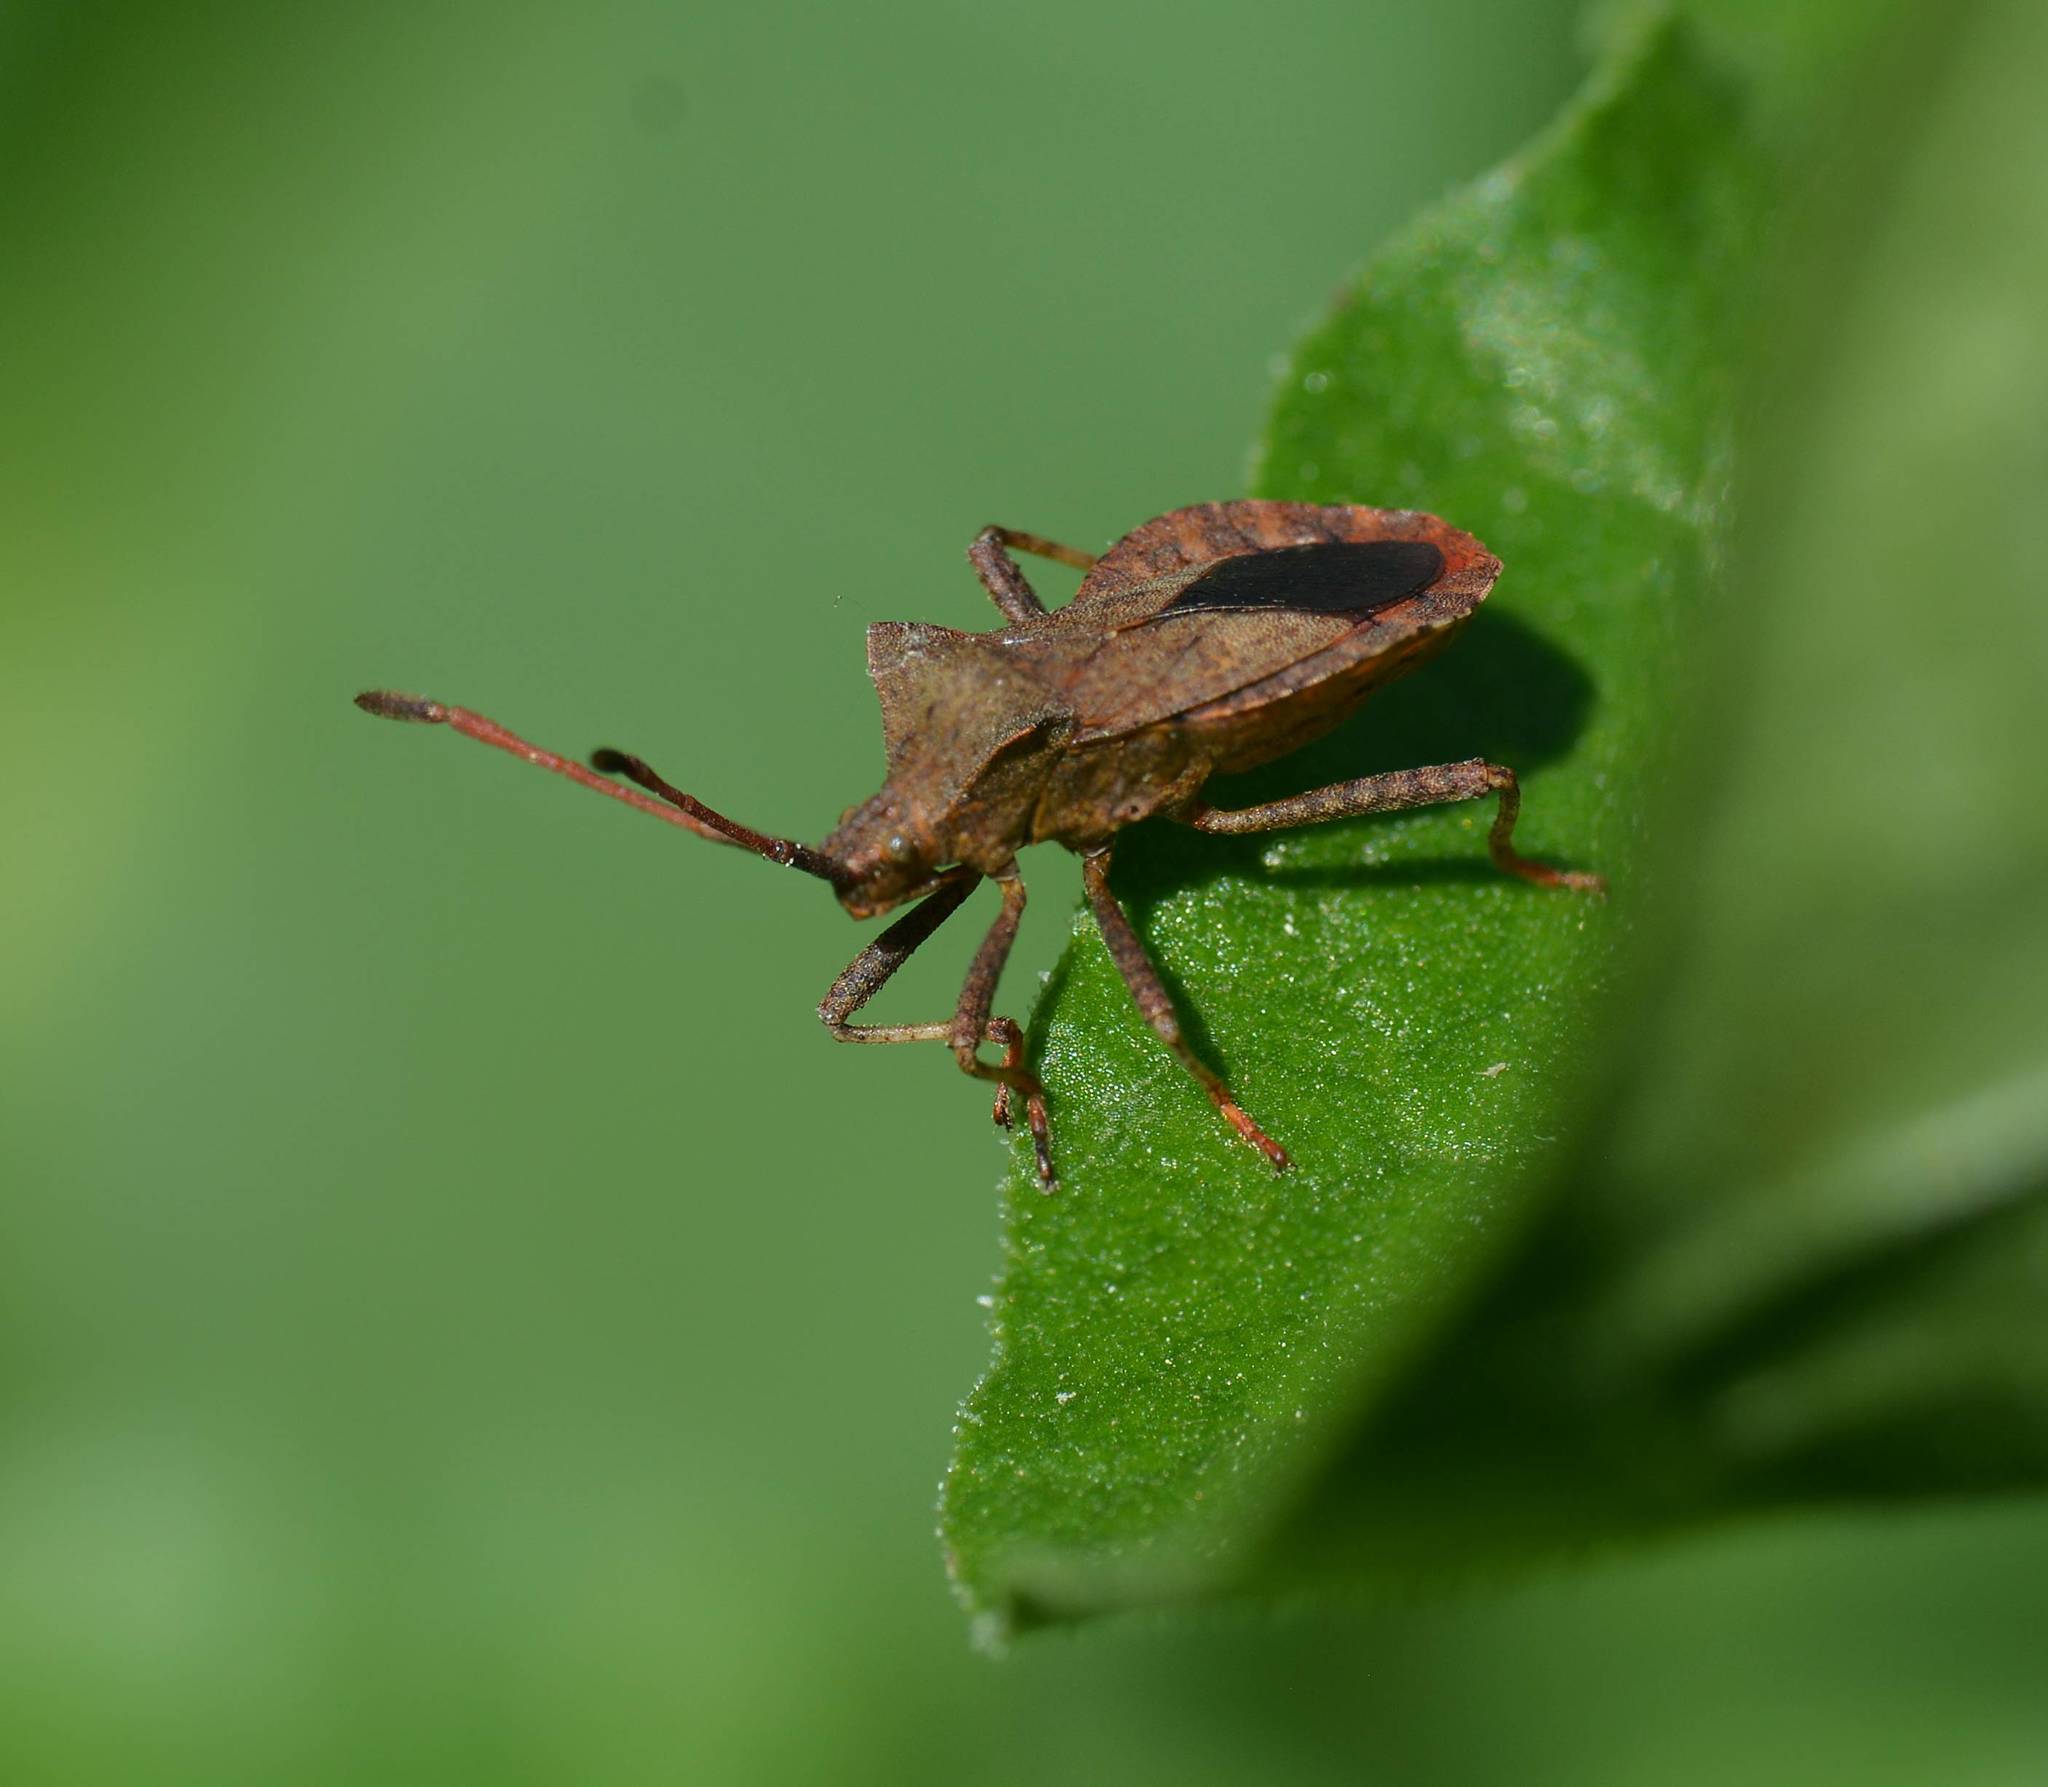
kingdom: Animalia
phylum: Arthropoda
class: Insecta
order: Hemiptera
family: Coreidae
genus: Coreus
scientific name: Coreus marginatus
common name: Dock bug
